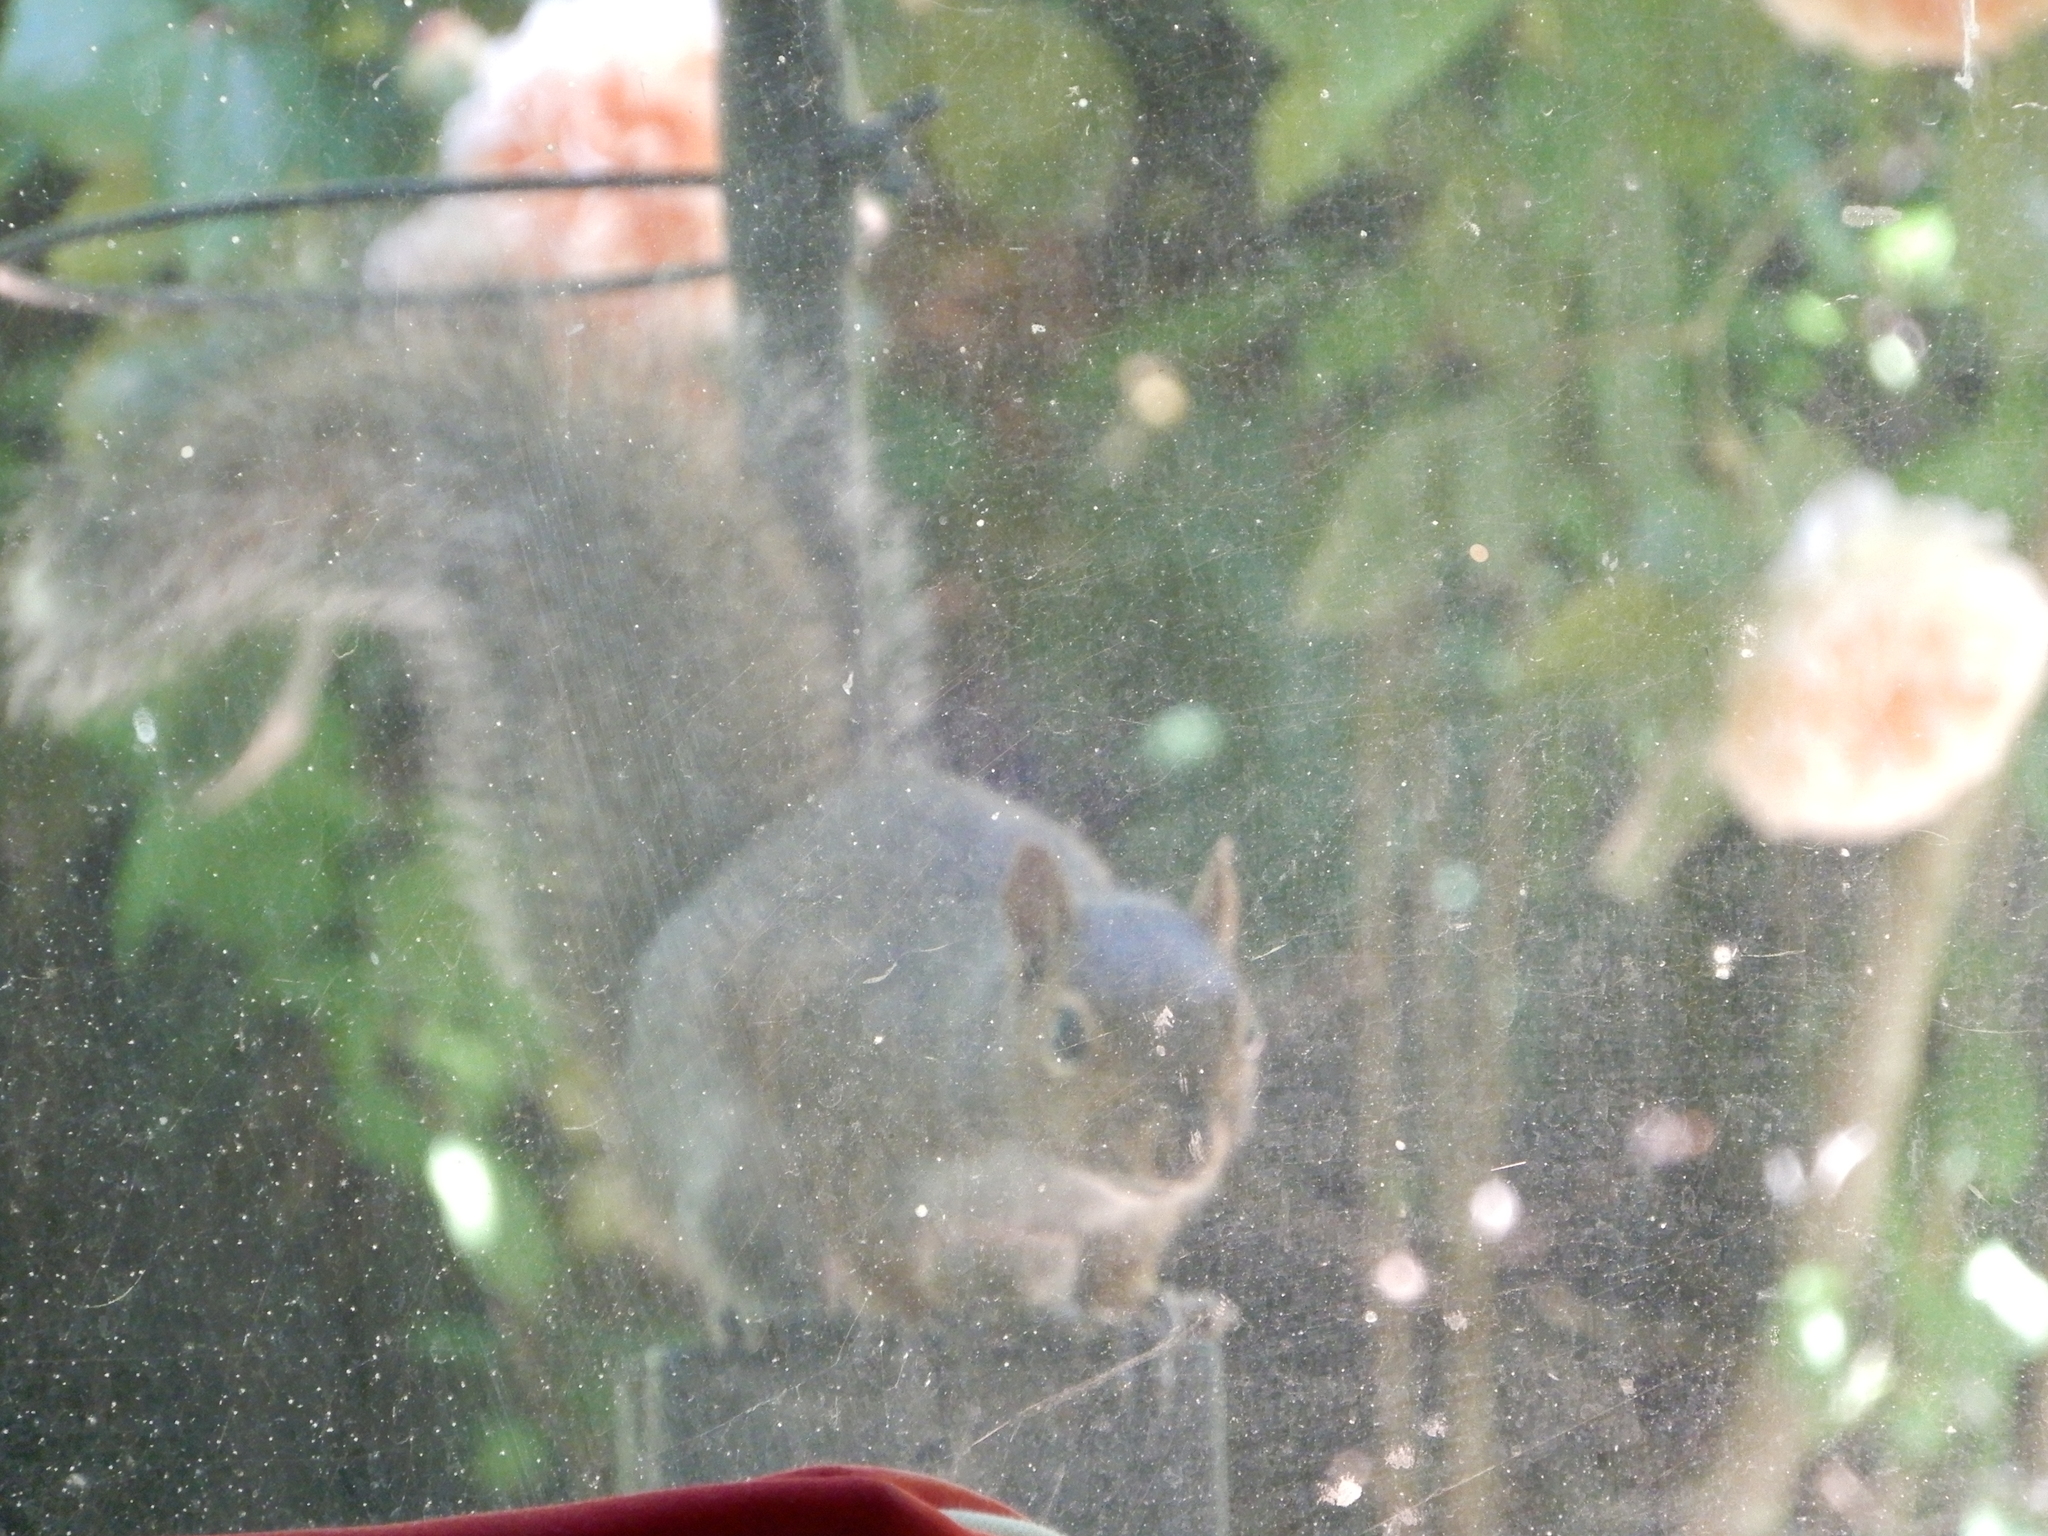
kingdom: Animalia
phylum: Chordata
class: Mammalia
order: Rodentia
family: Sciuridae
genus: Sciurus
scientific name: Sciurus carolinensis
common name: Eastern gray squirrel
